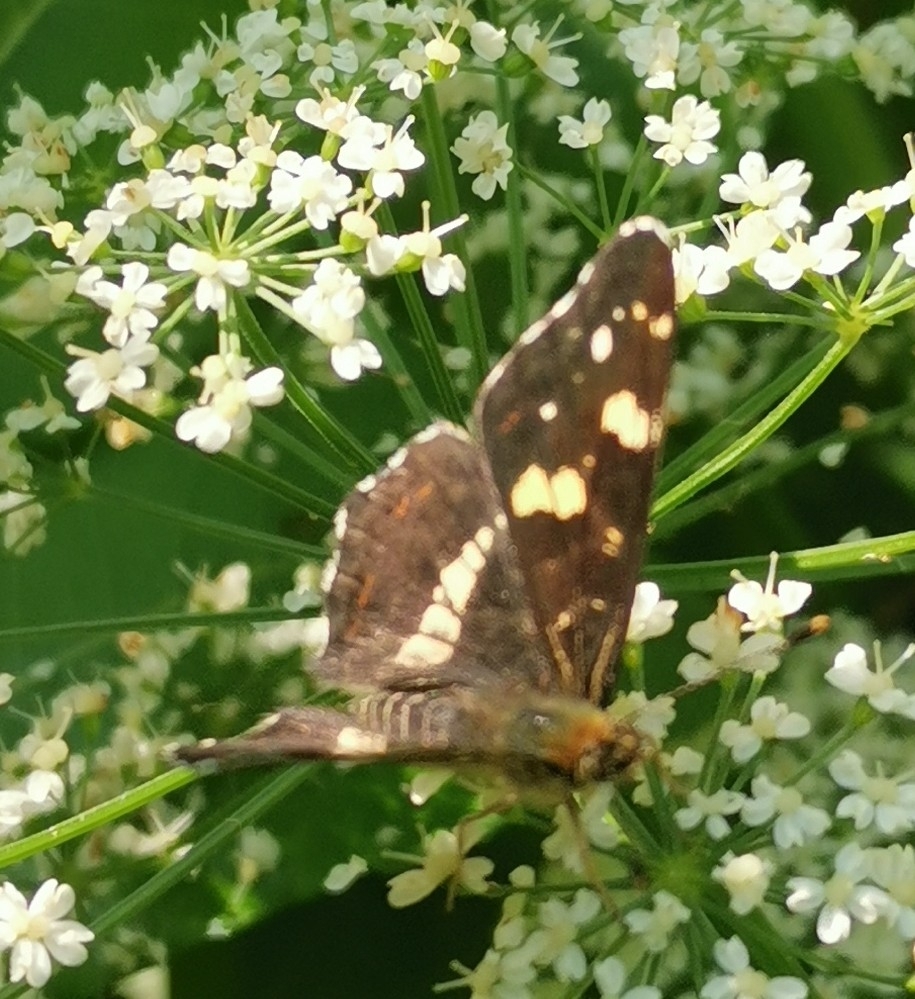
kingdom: Animalia
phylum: Arthropoda
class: Insecta
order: Lepidoptera
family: Nymphalidae
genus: Araschnia
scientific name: Araschnia levana
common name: Map butterfly
